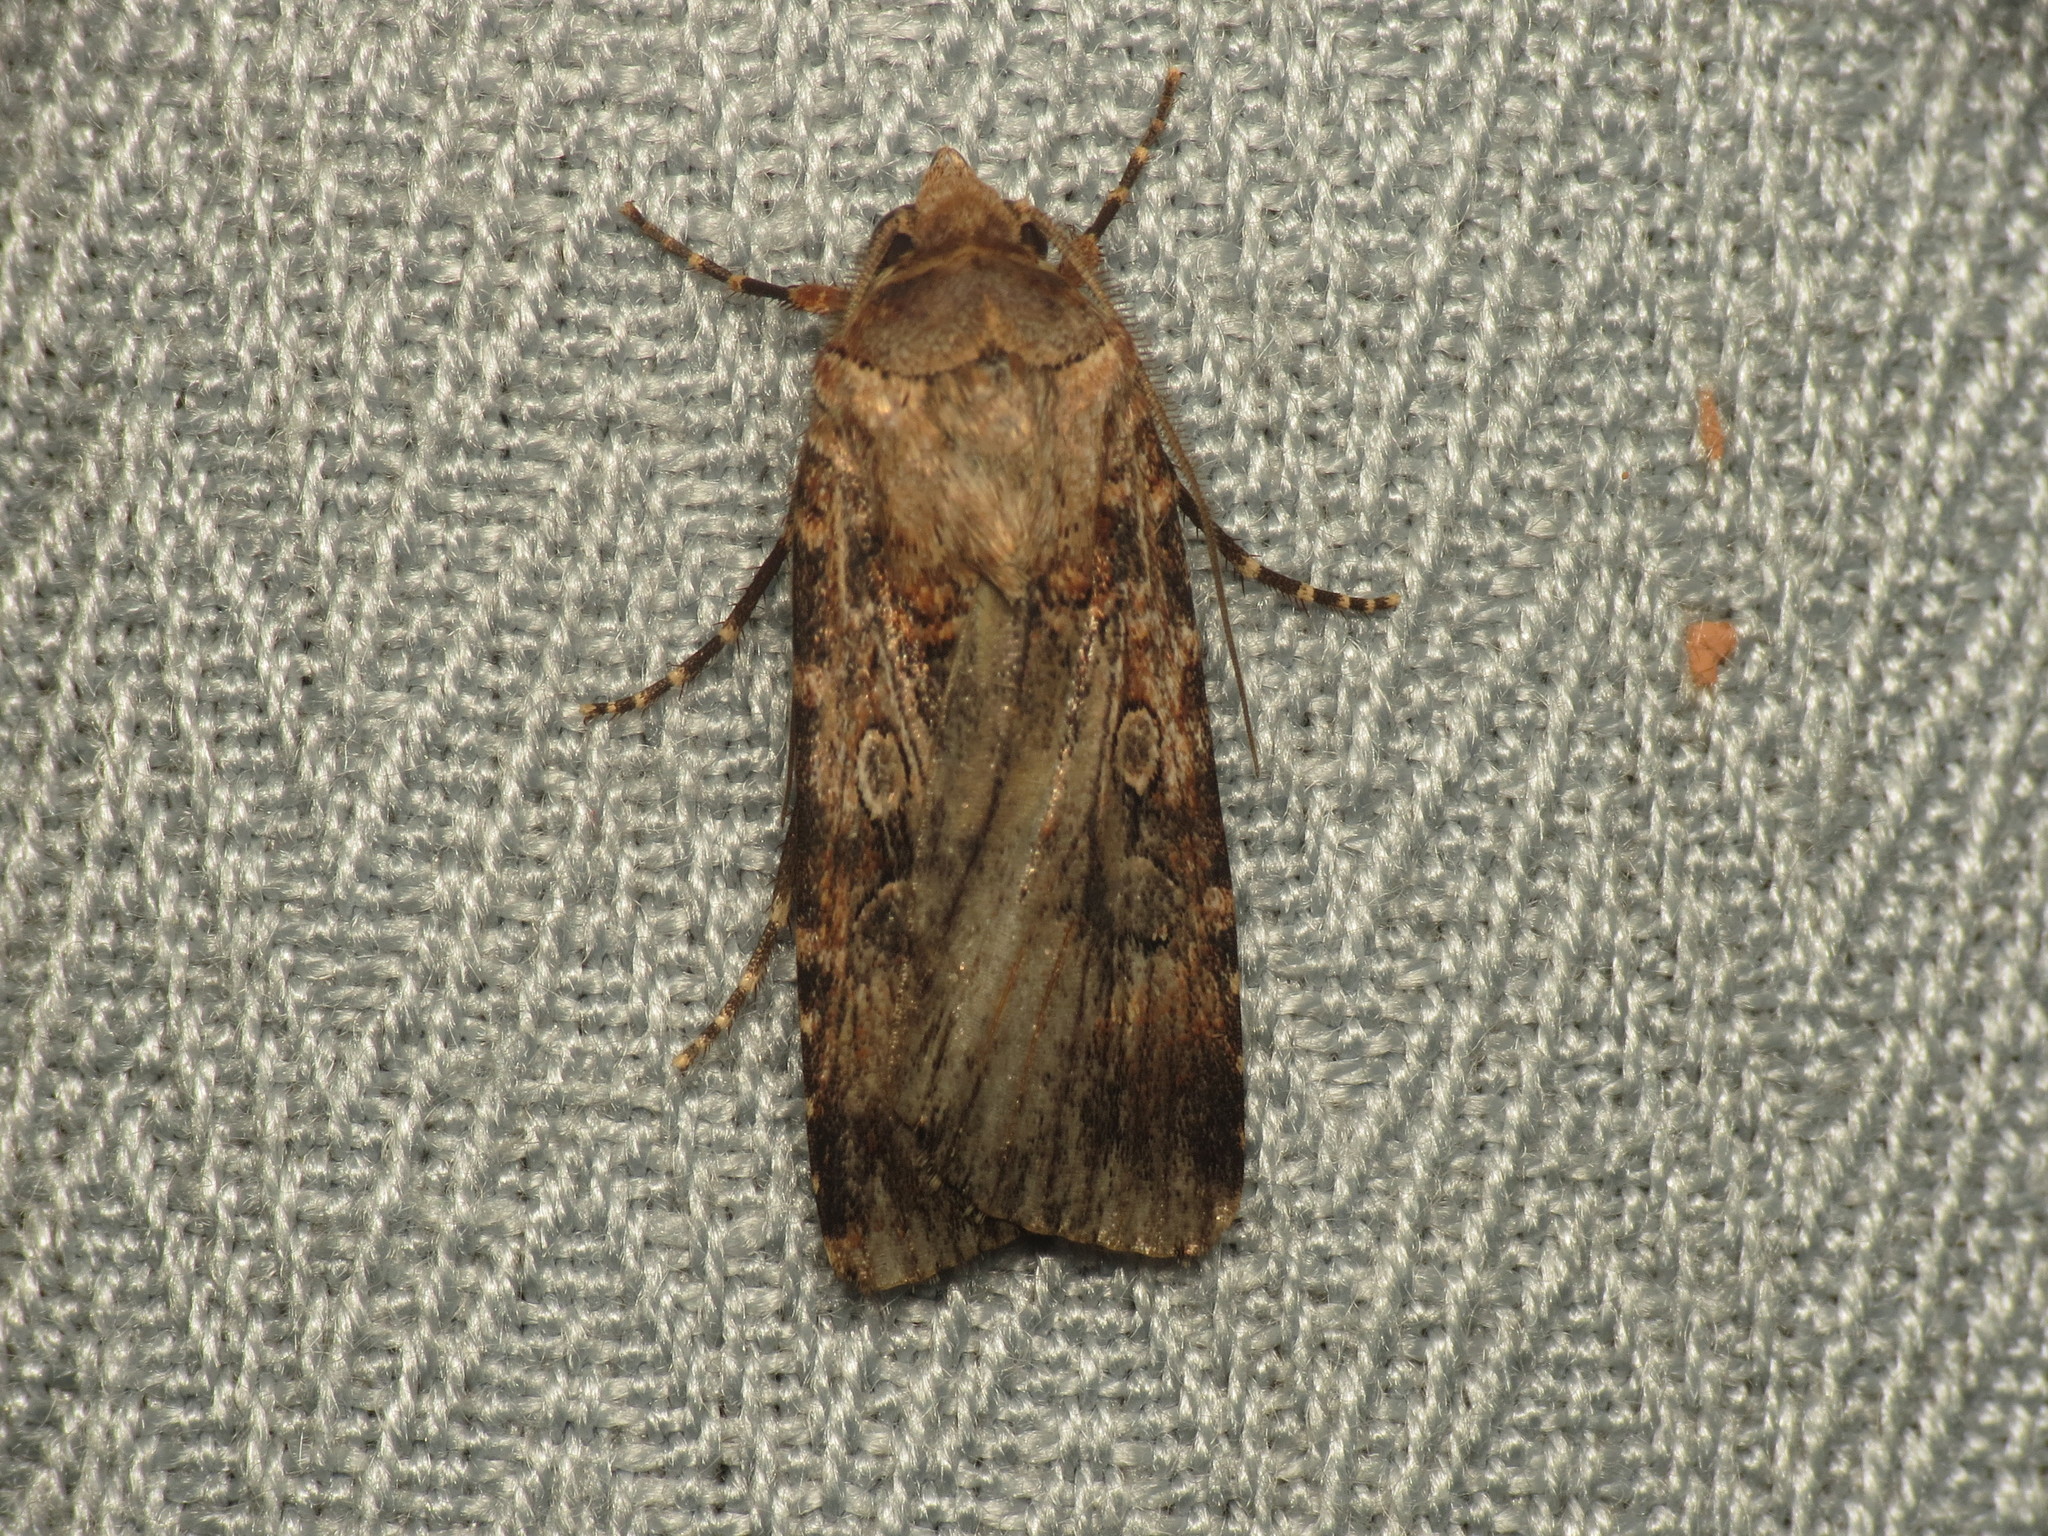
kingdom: Animalia
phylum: Arthropoda
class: Insecta
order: Lepidoptera
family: Noctuidae
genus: Agrotis
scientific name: Agrotis munda
